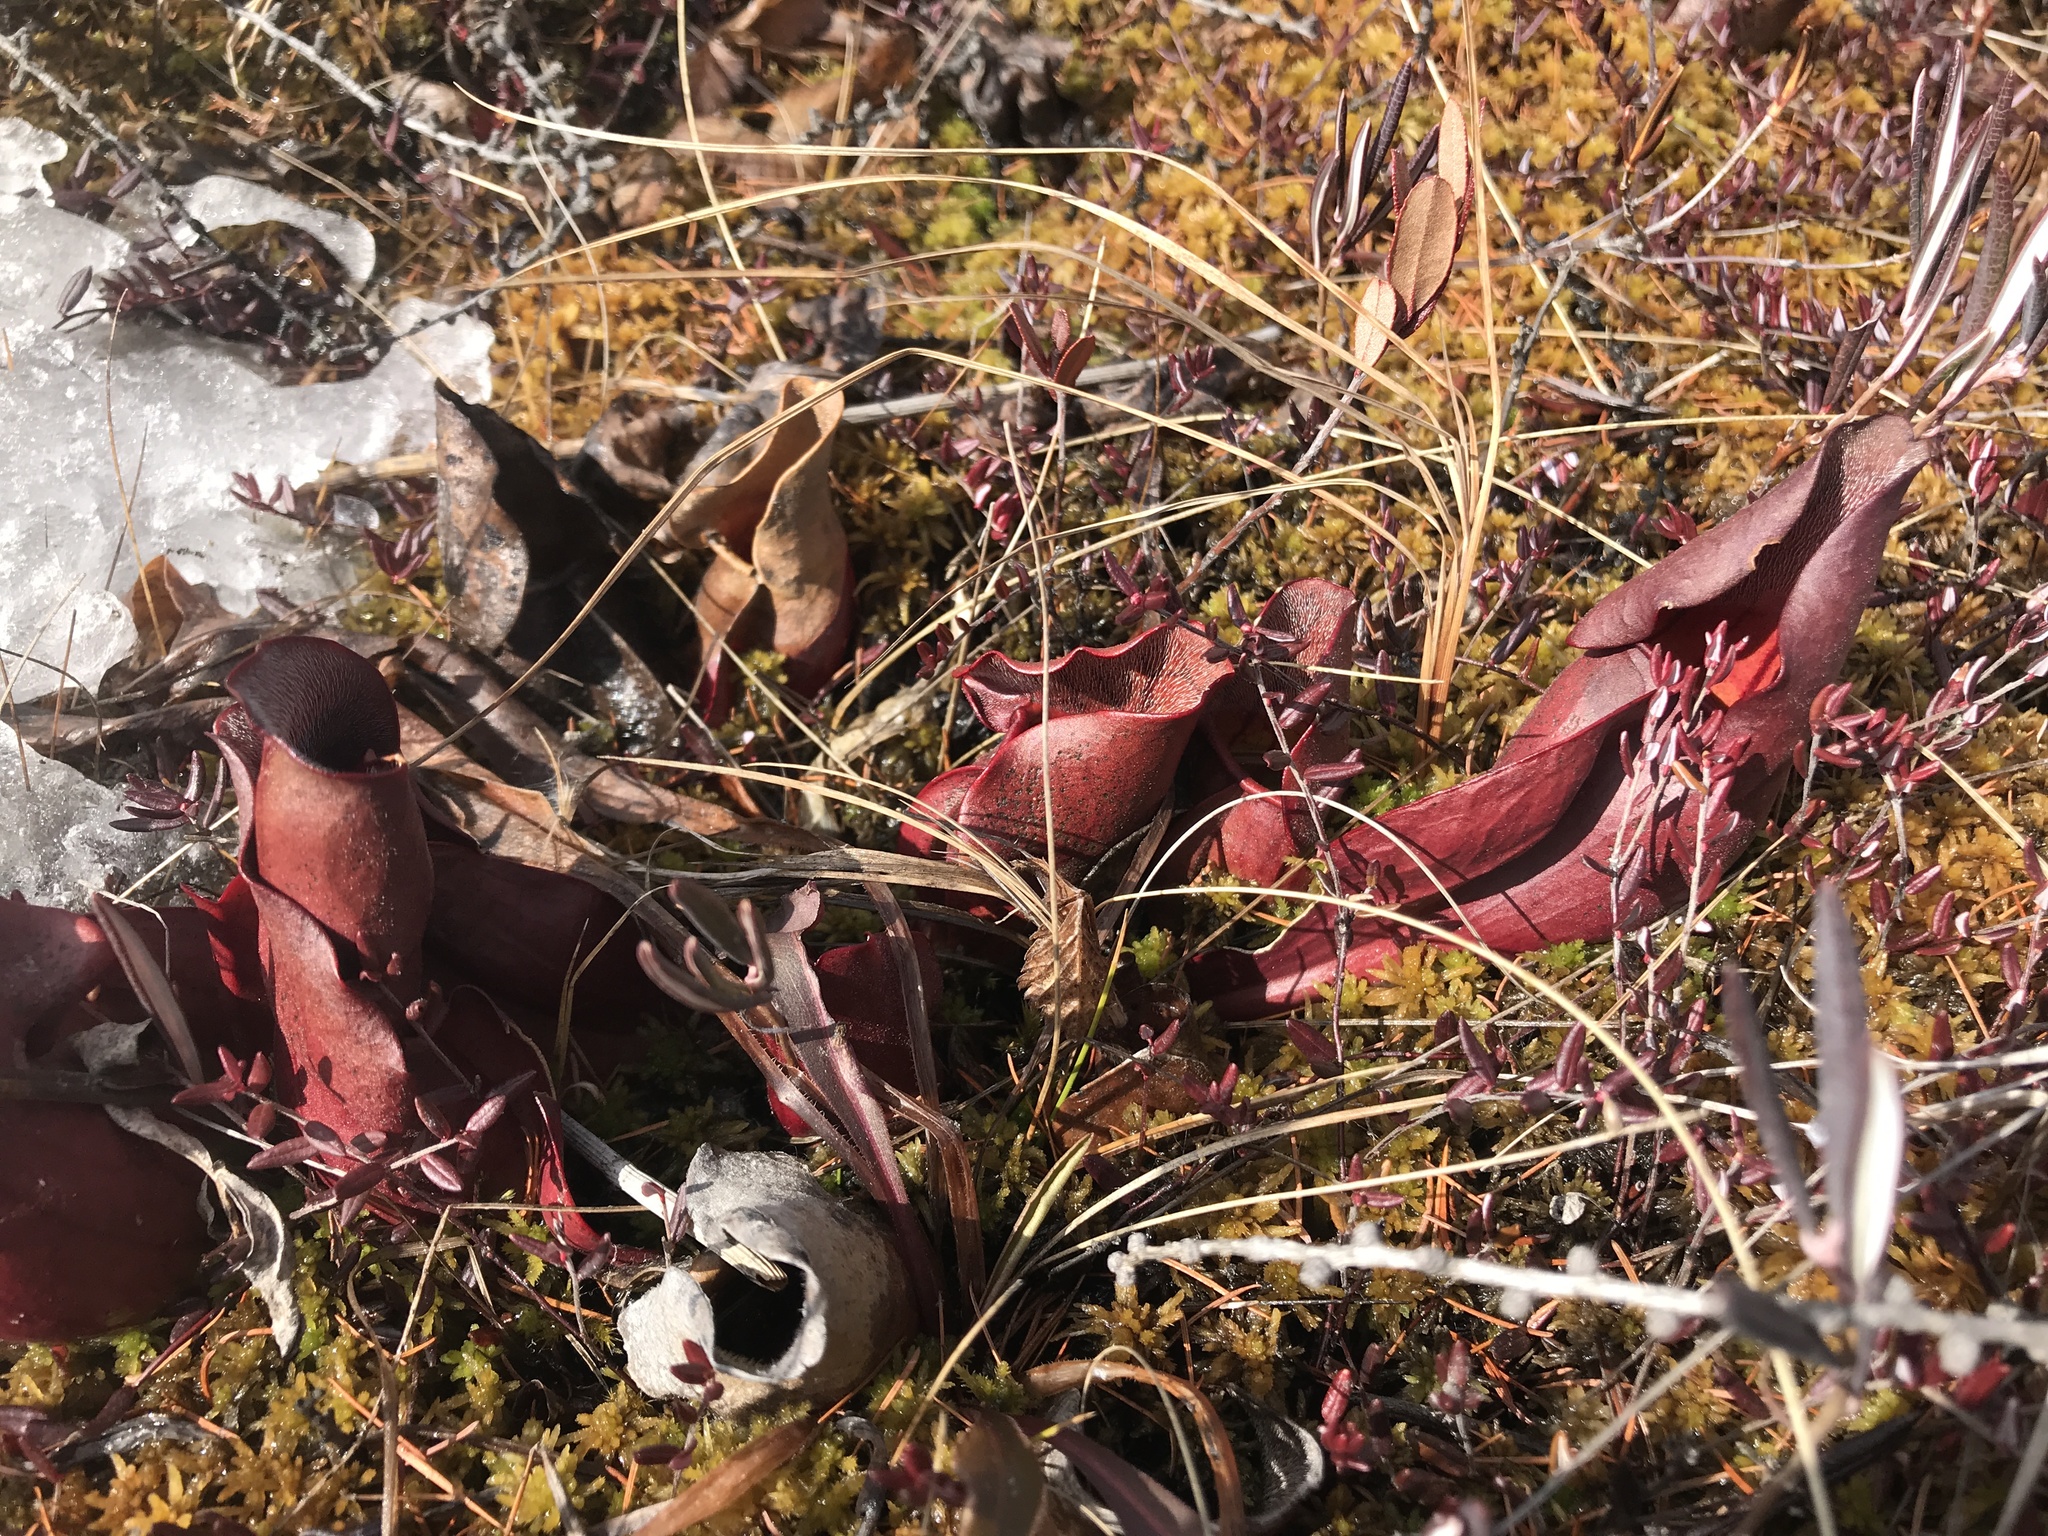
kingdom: Plantae
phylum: Tracheophyta
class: Magnoliopsida
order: Ericales
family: Sarraceniaceae
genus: Sarracenia
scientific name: Sarracenia purpurea
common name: Pitcherplant
